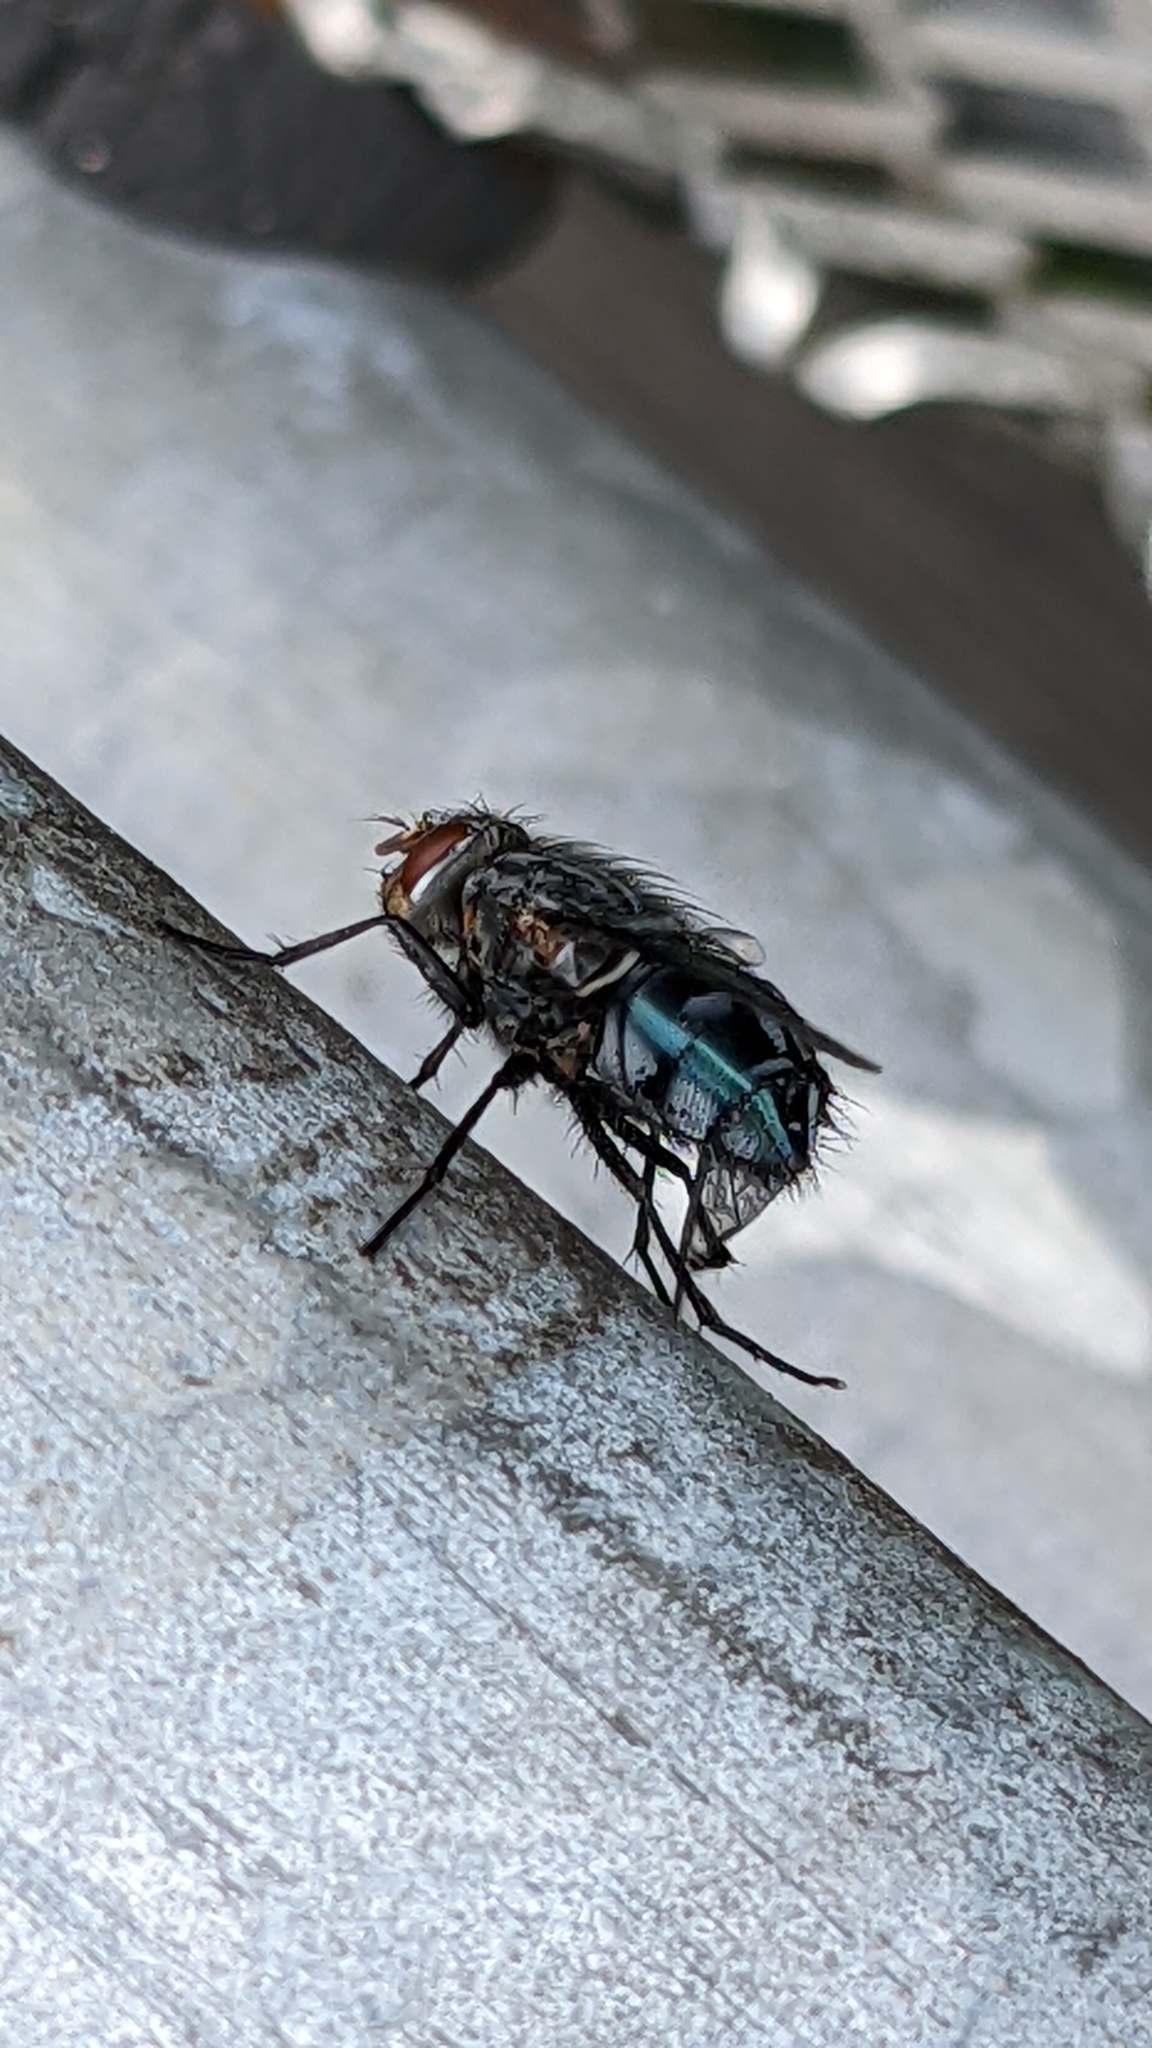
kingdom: Animalia
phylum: Arthropoda
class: Insecta
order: Diptera
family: Calliphoridae
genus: Calliphora
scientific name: Calliphora vicina
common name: Common blow flie
